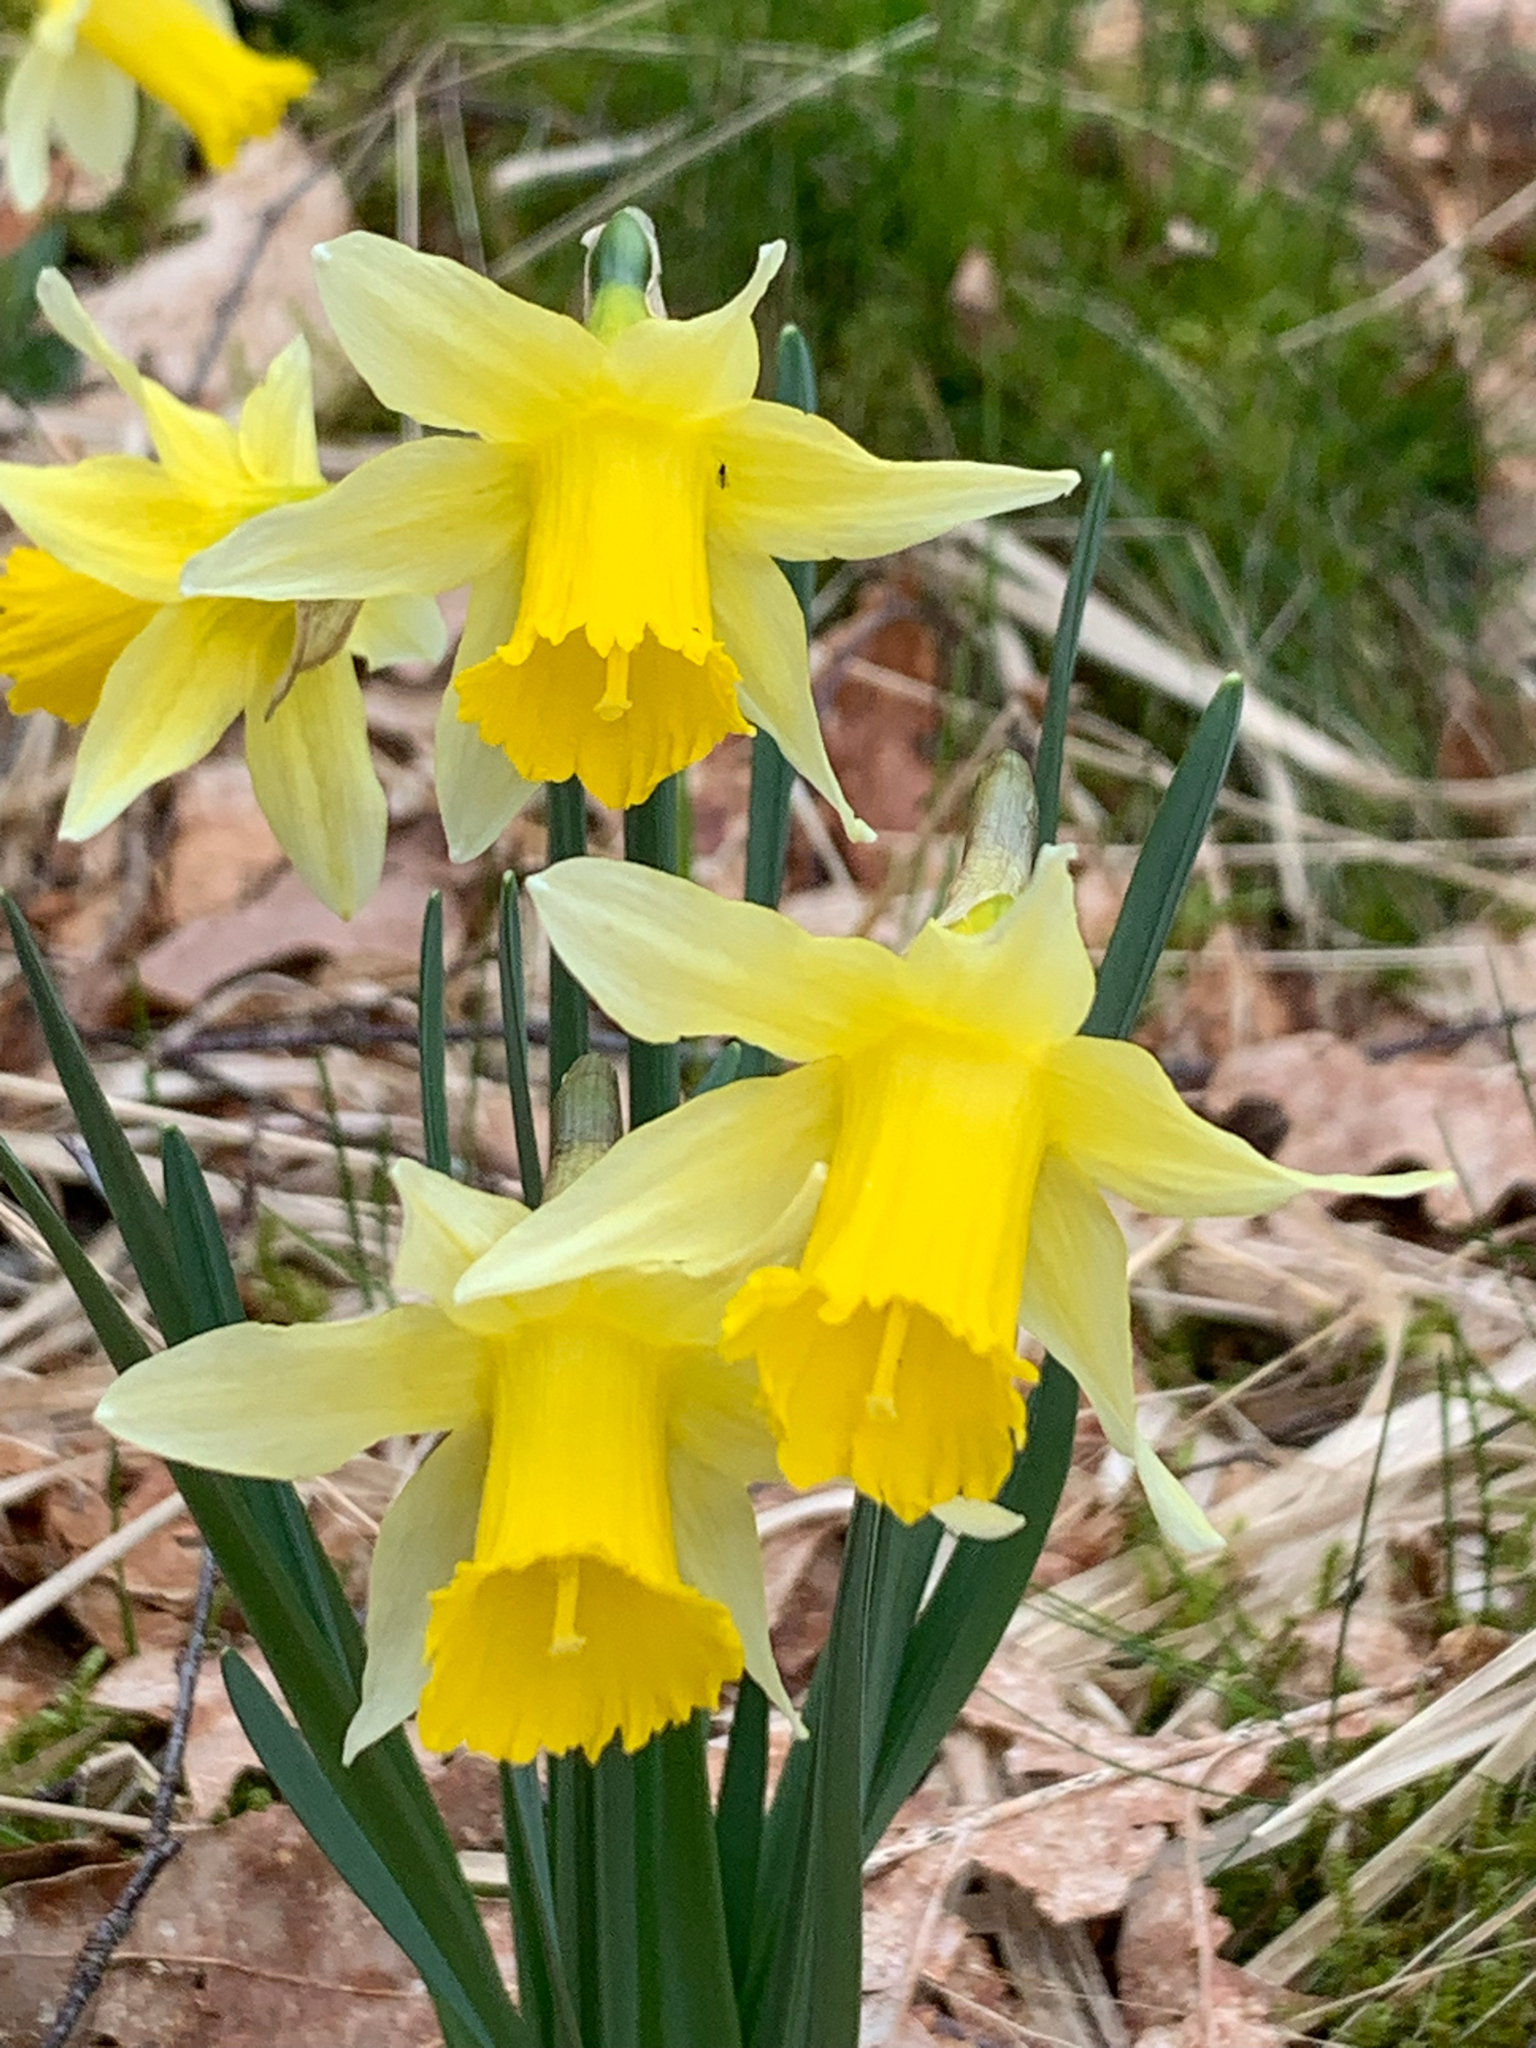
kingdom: Plantae
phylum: Tracheophyta
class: Liliopsida
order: Asparagales
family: Amaryllidaceae
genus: Narcissus
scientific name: Narcissus pseudonarcissus
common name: Daffodil
